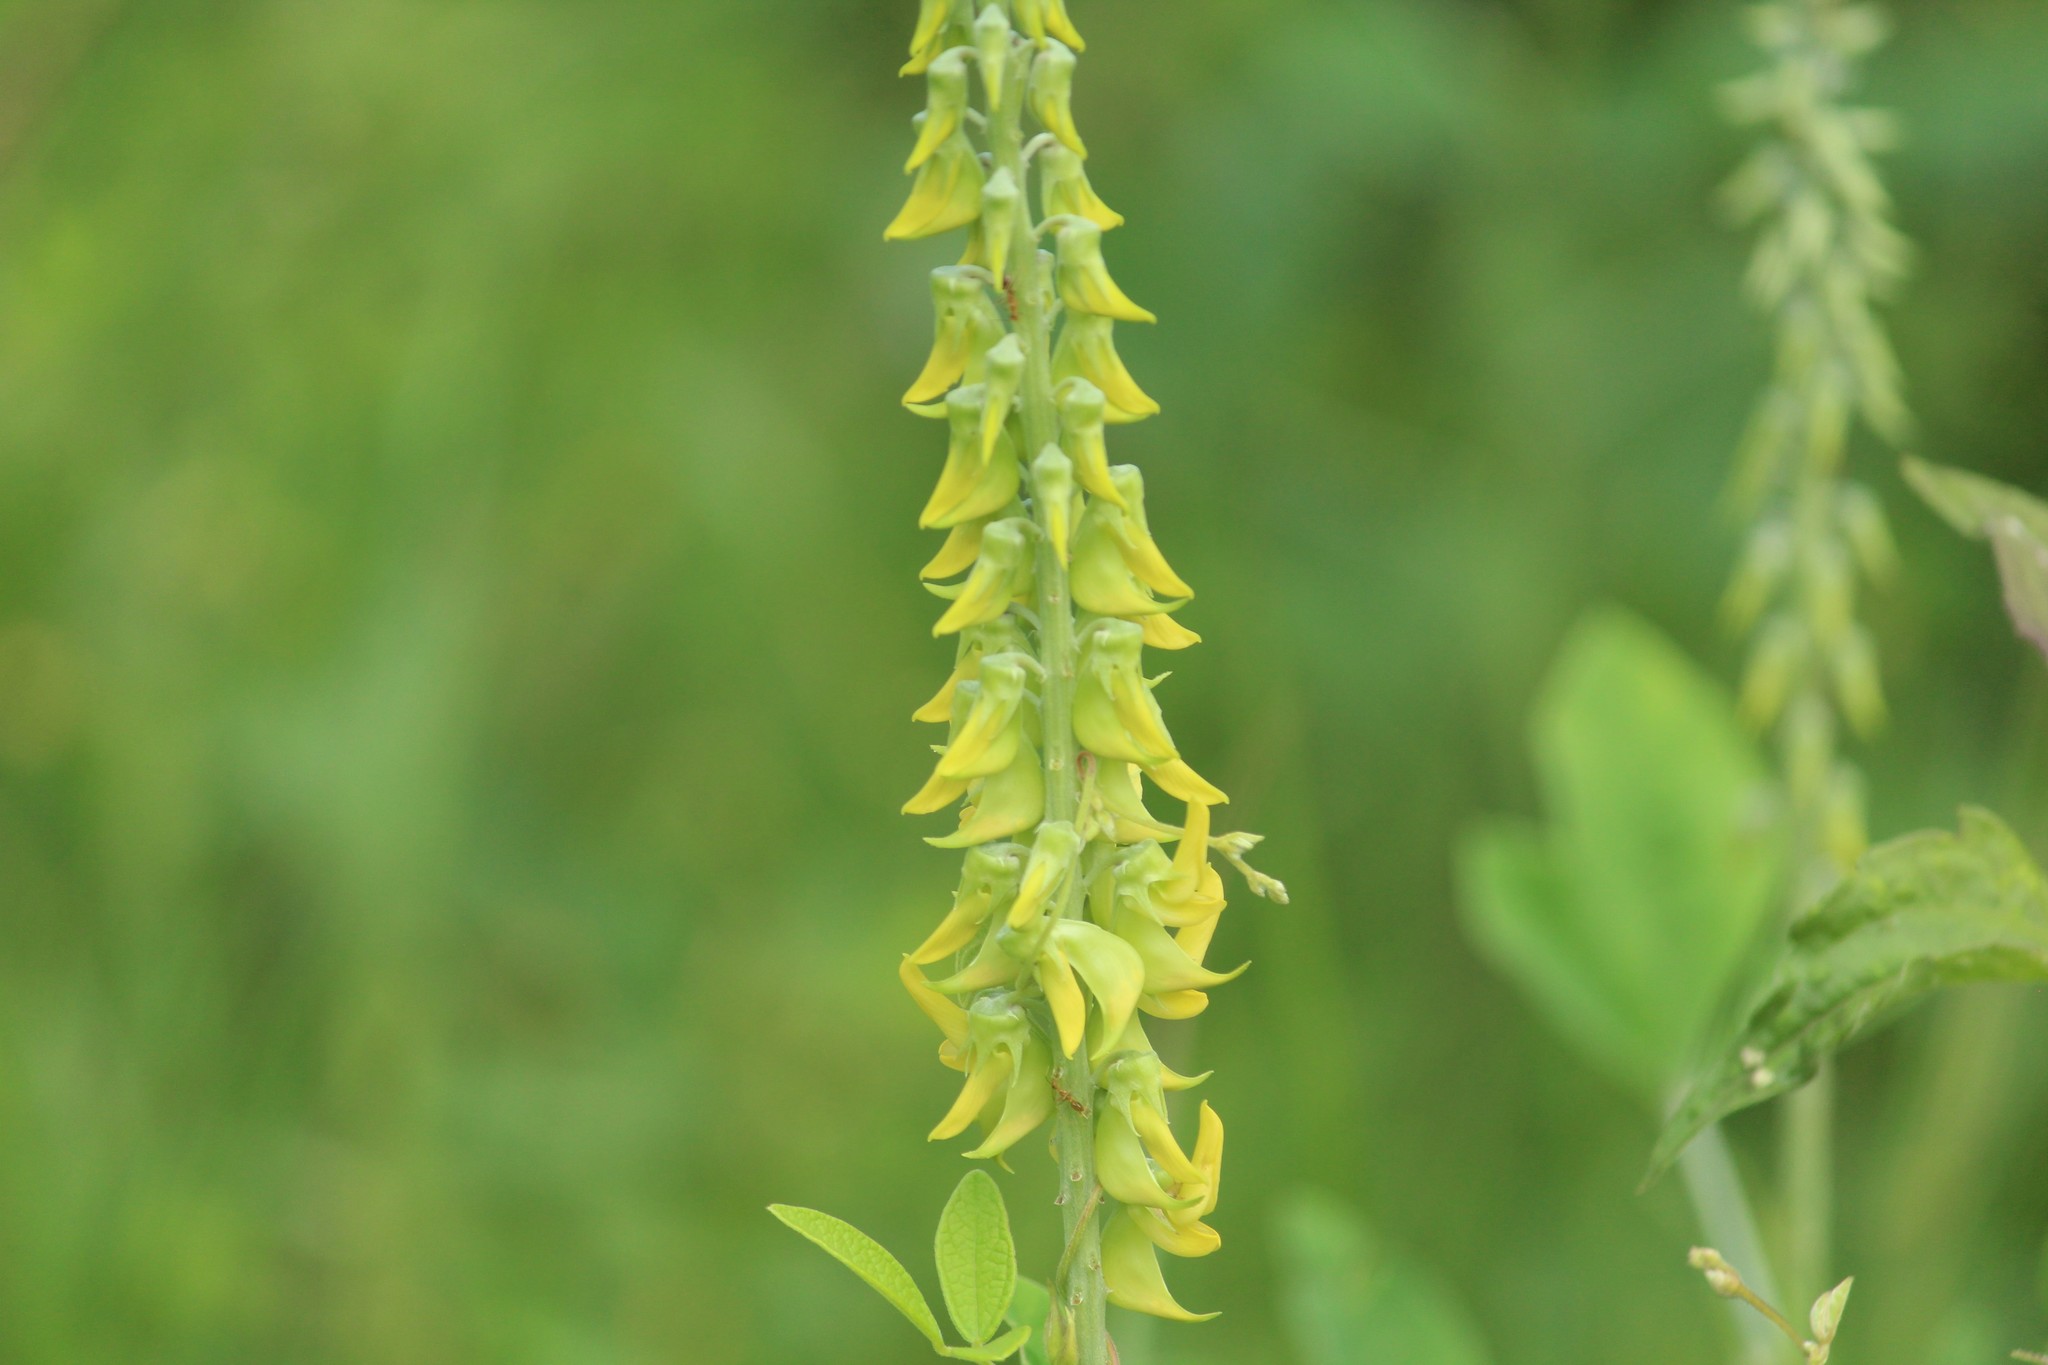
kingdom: Plantae
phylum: Tracheophyta
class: Magnoliopsida
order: Fabales
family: Fabaceae
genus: Crotalaria
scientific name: Crotalaria pallida
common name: Smooth rattlebox
